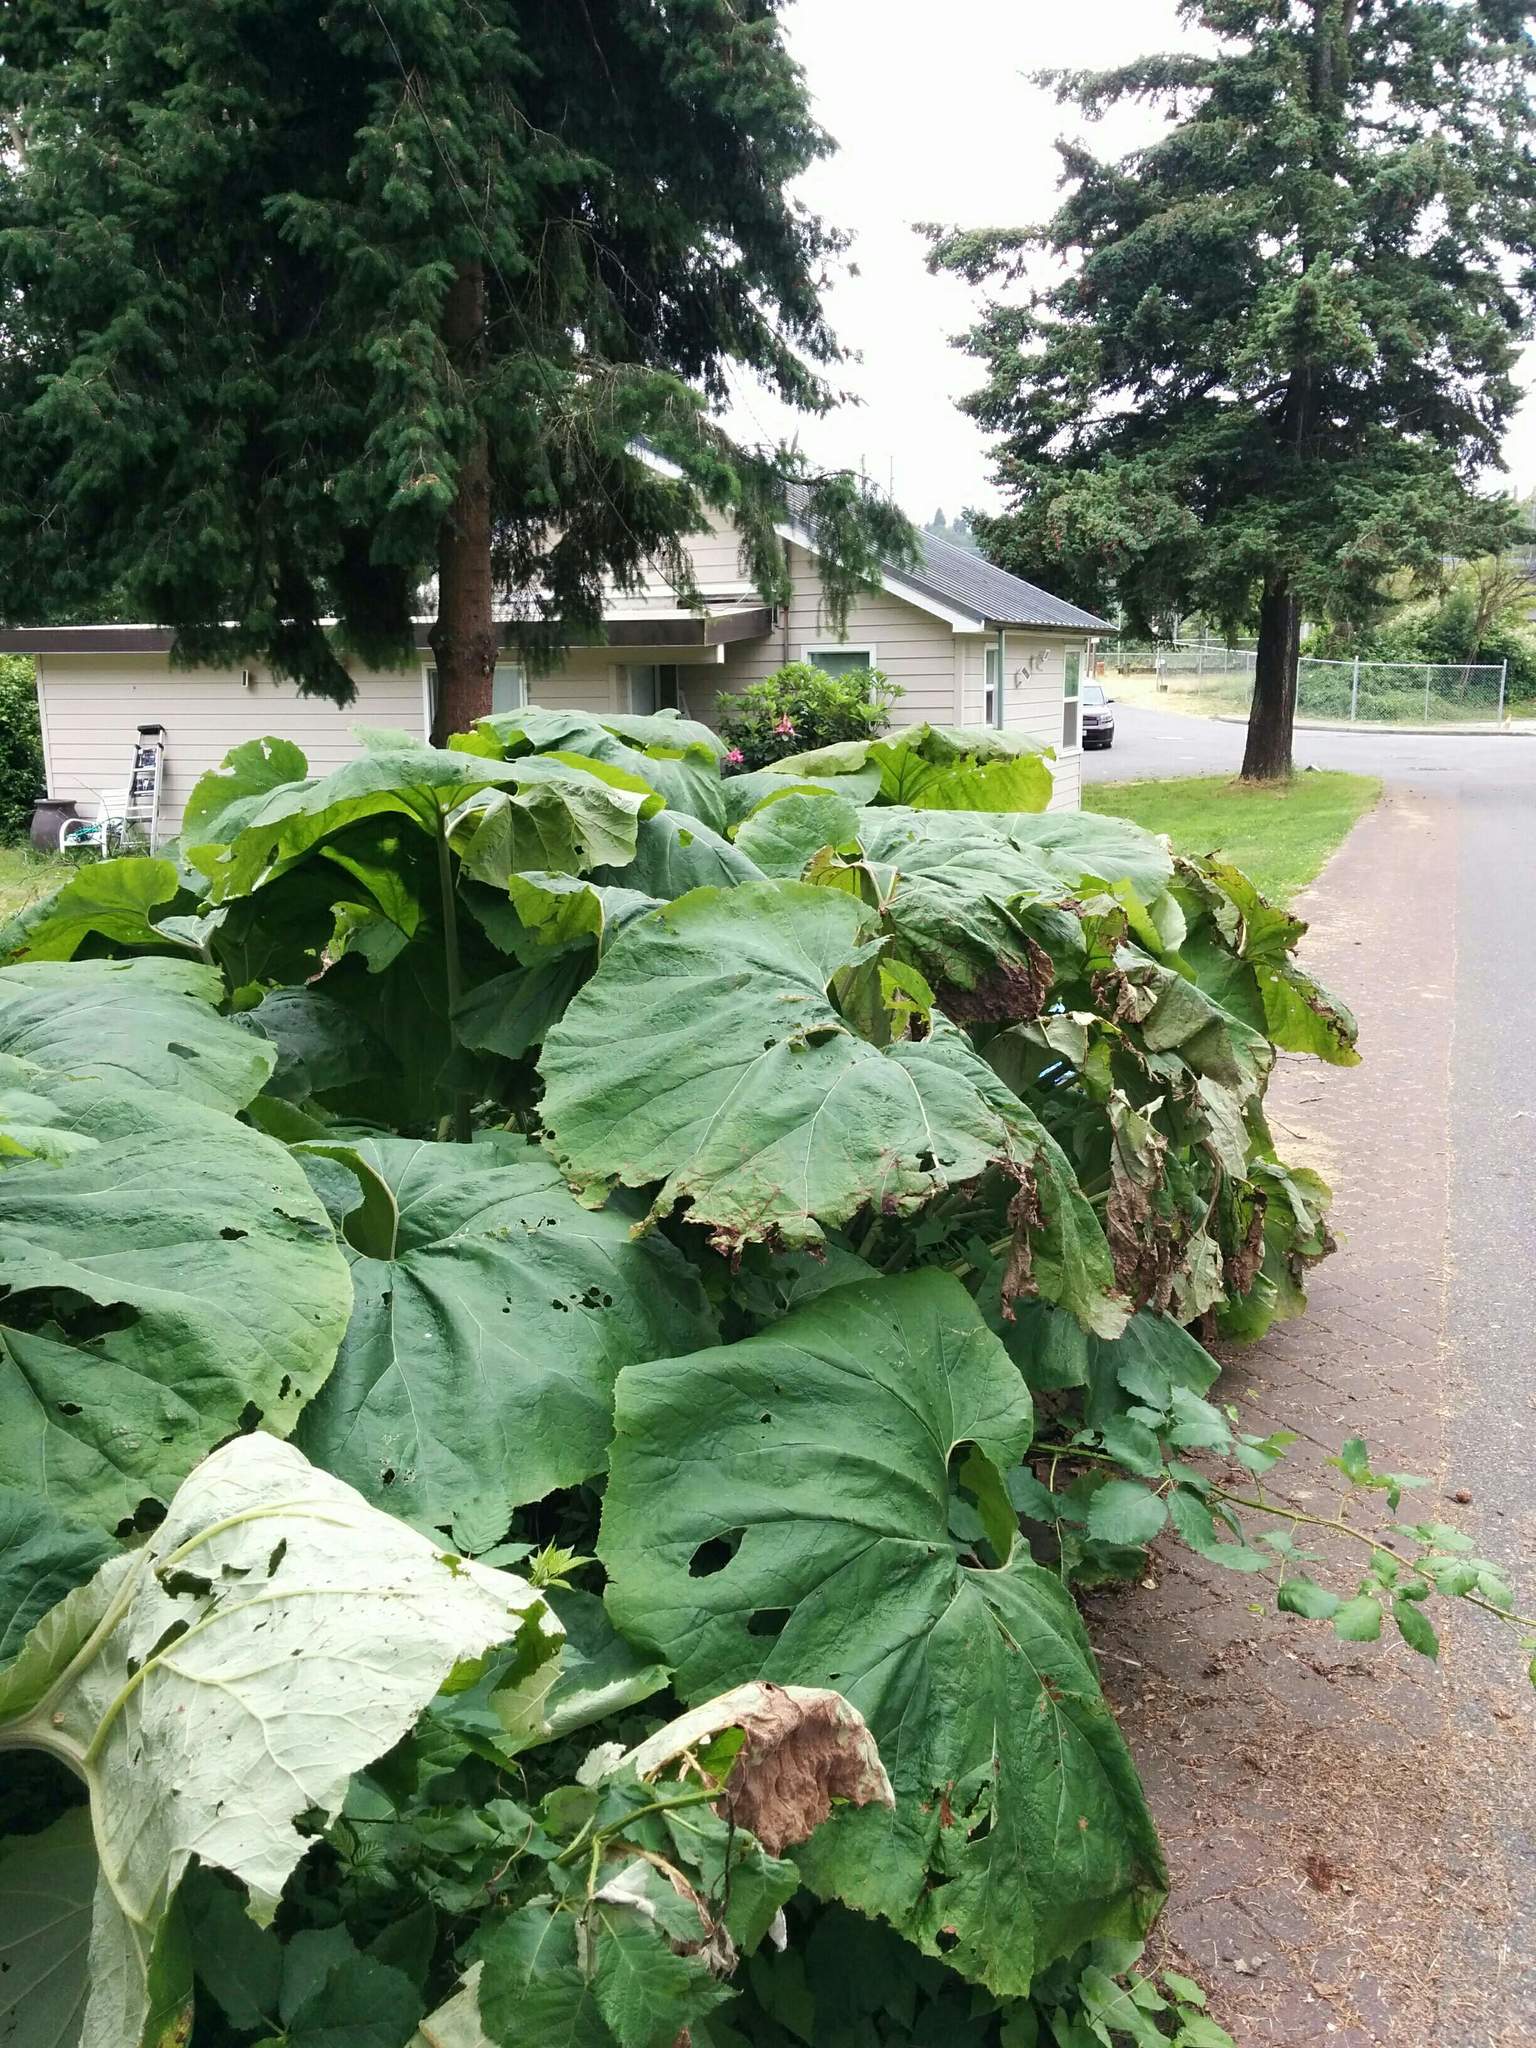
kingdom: Plantae
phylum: Tracheophyta
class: Magnoliopsida
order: Asterales
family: Asteraceae
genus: Petasites
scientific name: Petasites japonicus
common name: Giant butterbur
